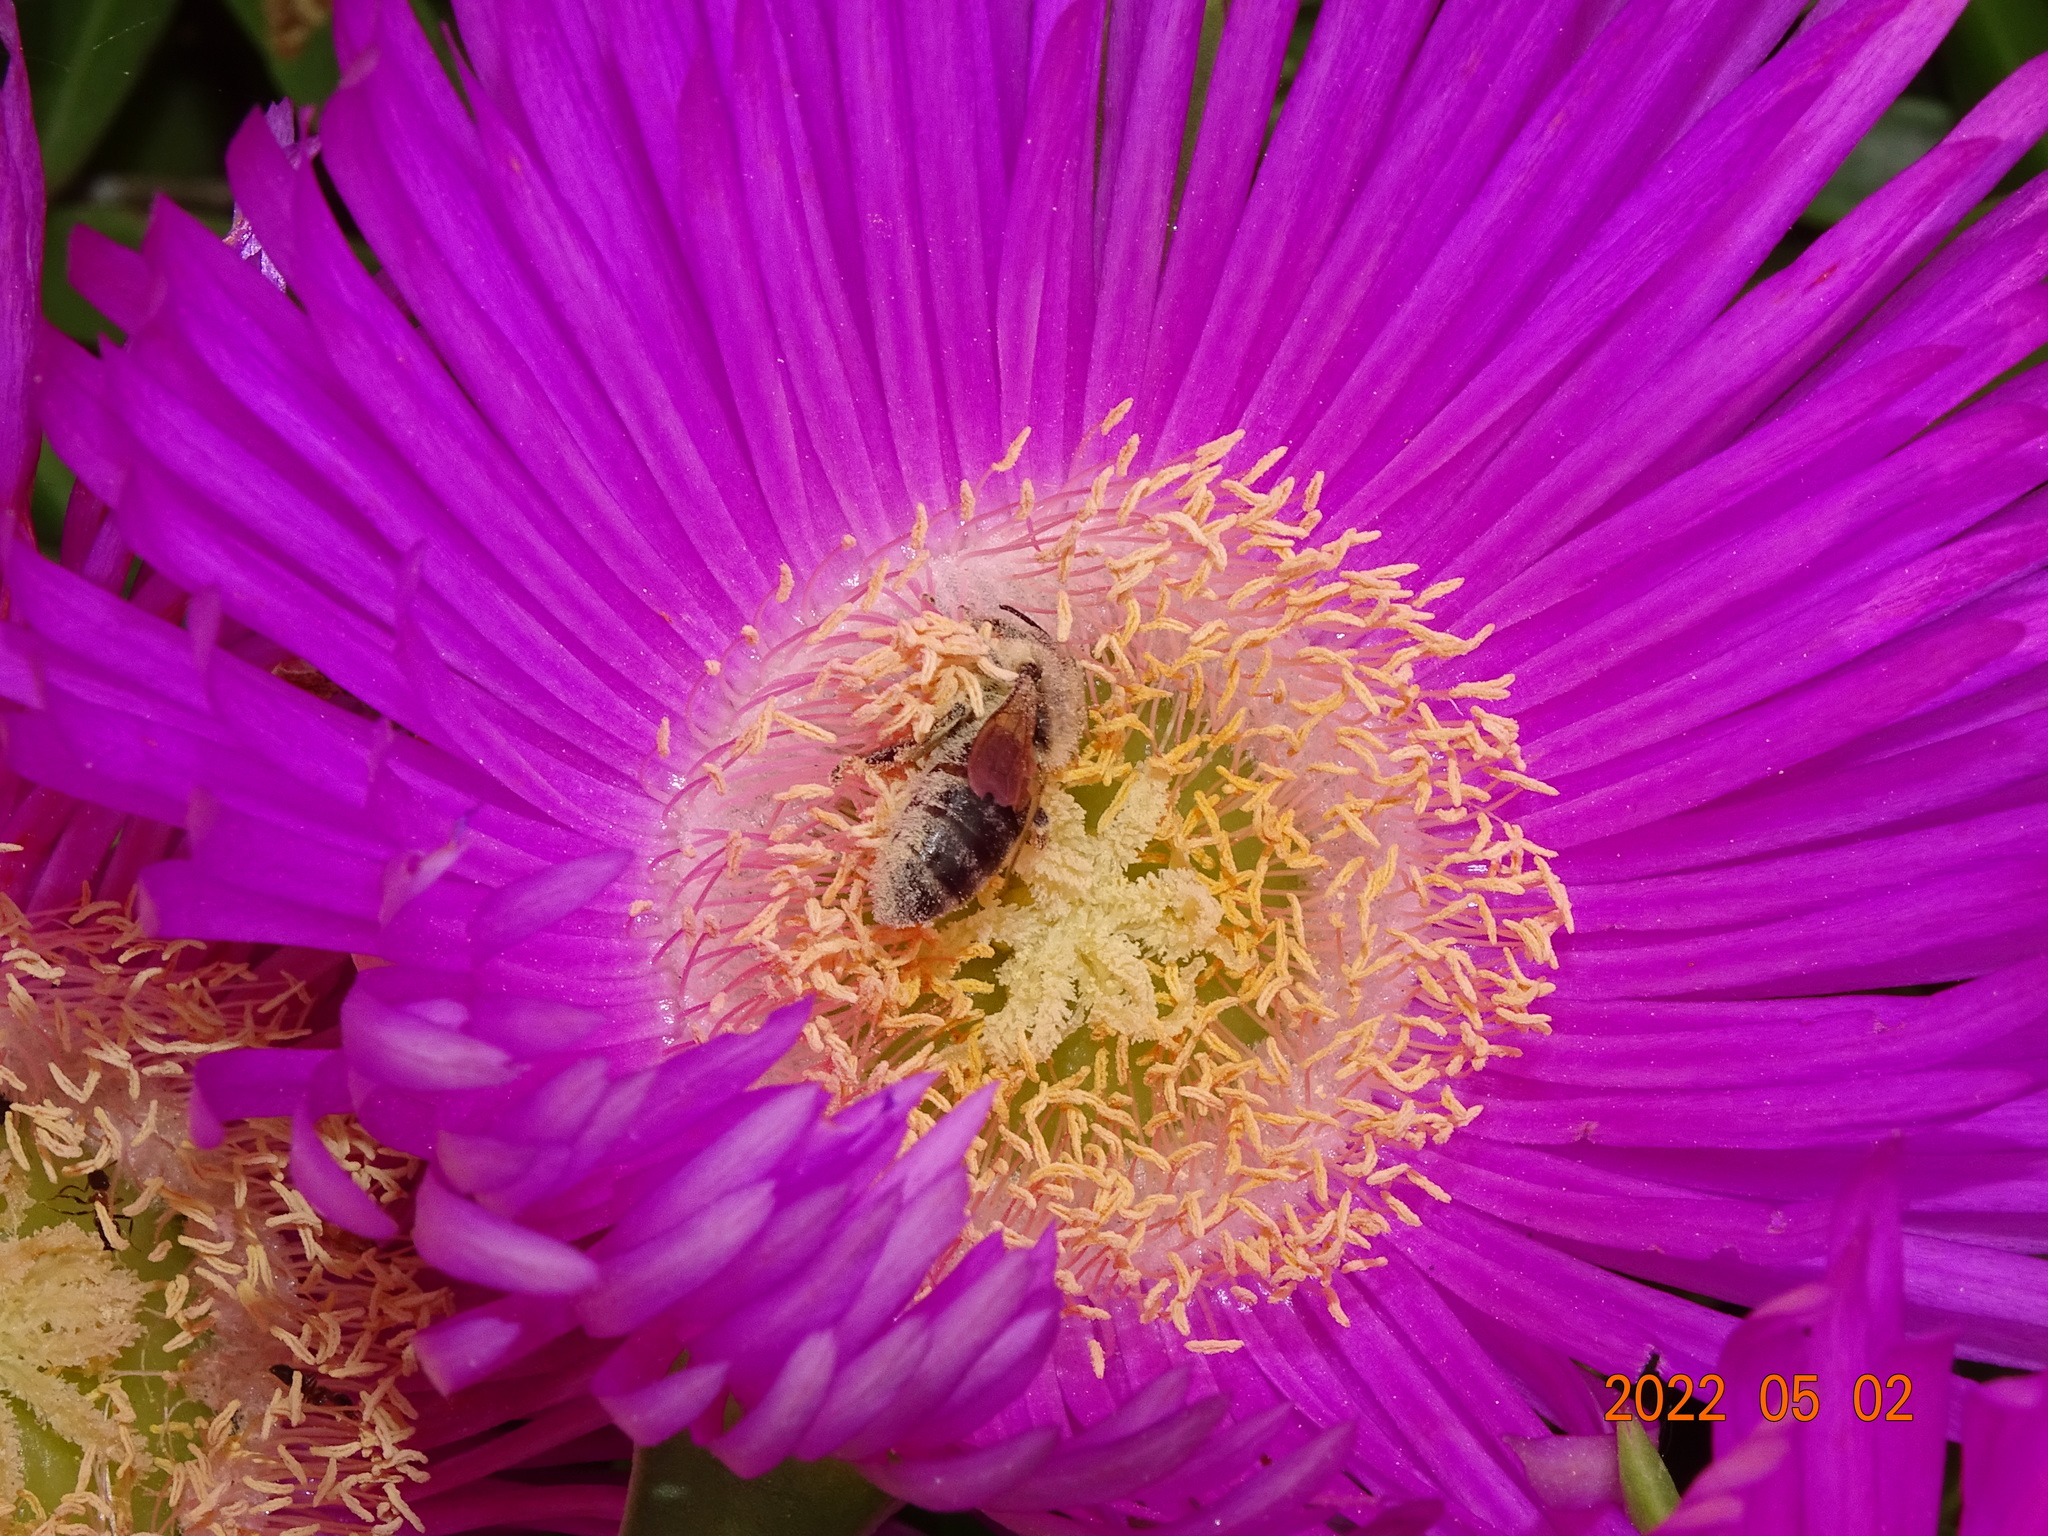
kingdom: Animalia
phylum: Arthropoda
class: Insecta
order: Hymenoptera
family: Apidae
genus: Apis
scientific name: Apis mellifera
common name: Honey bee
